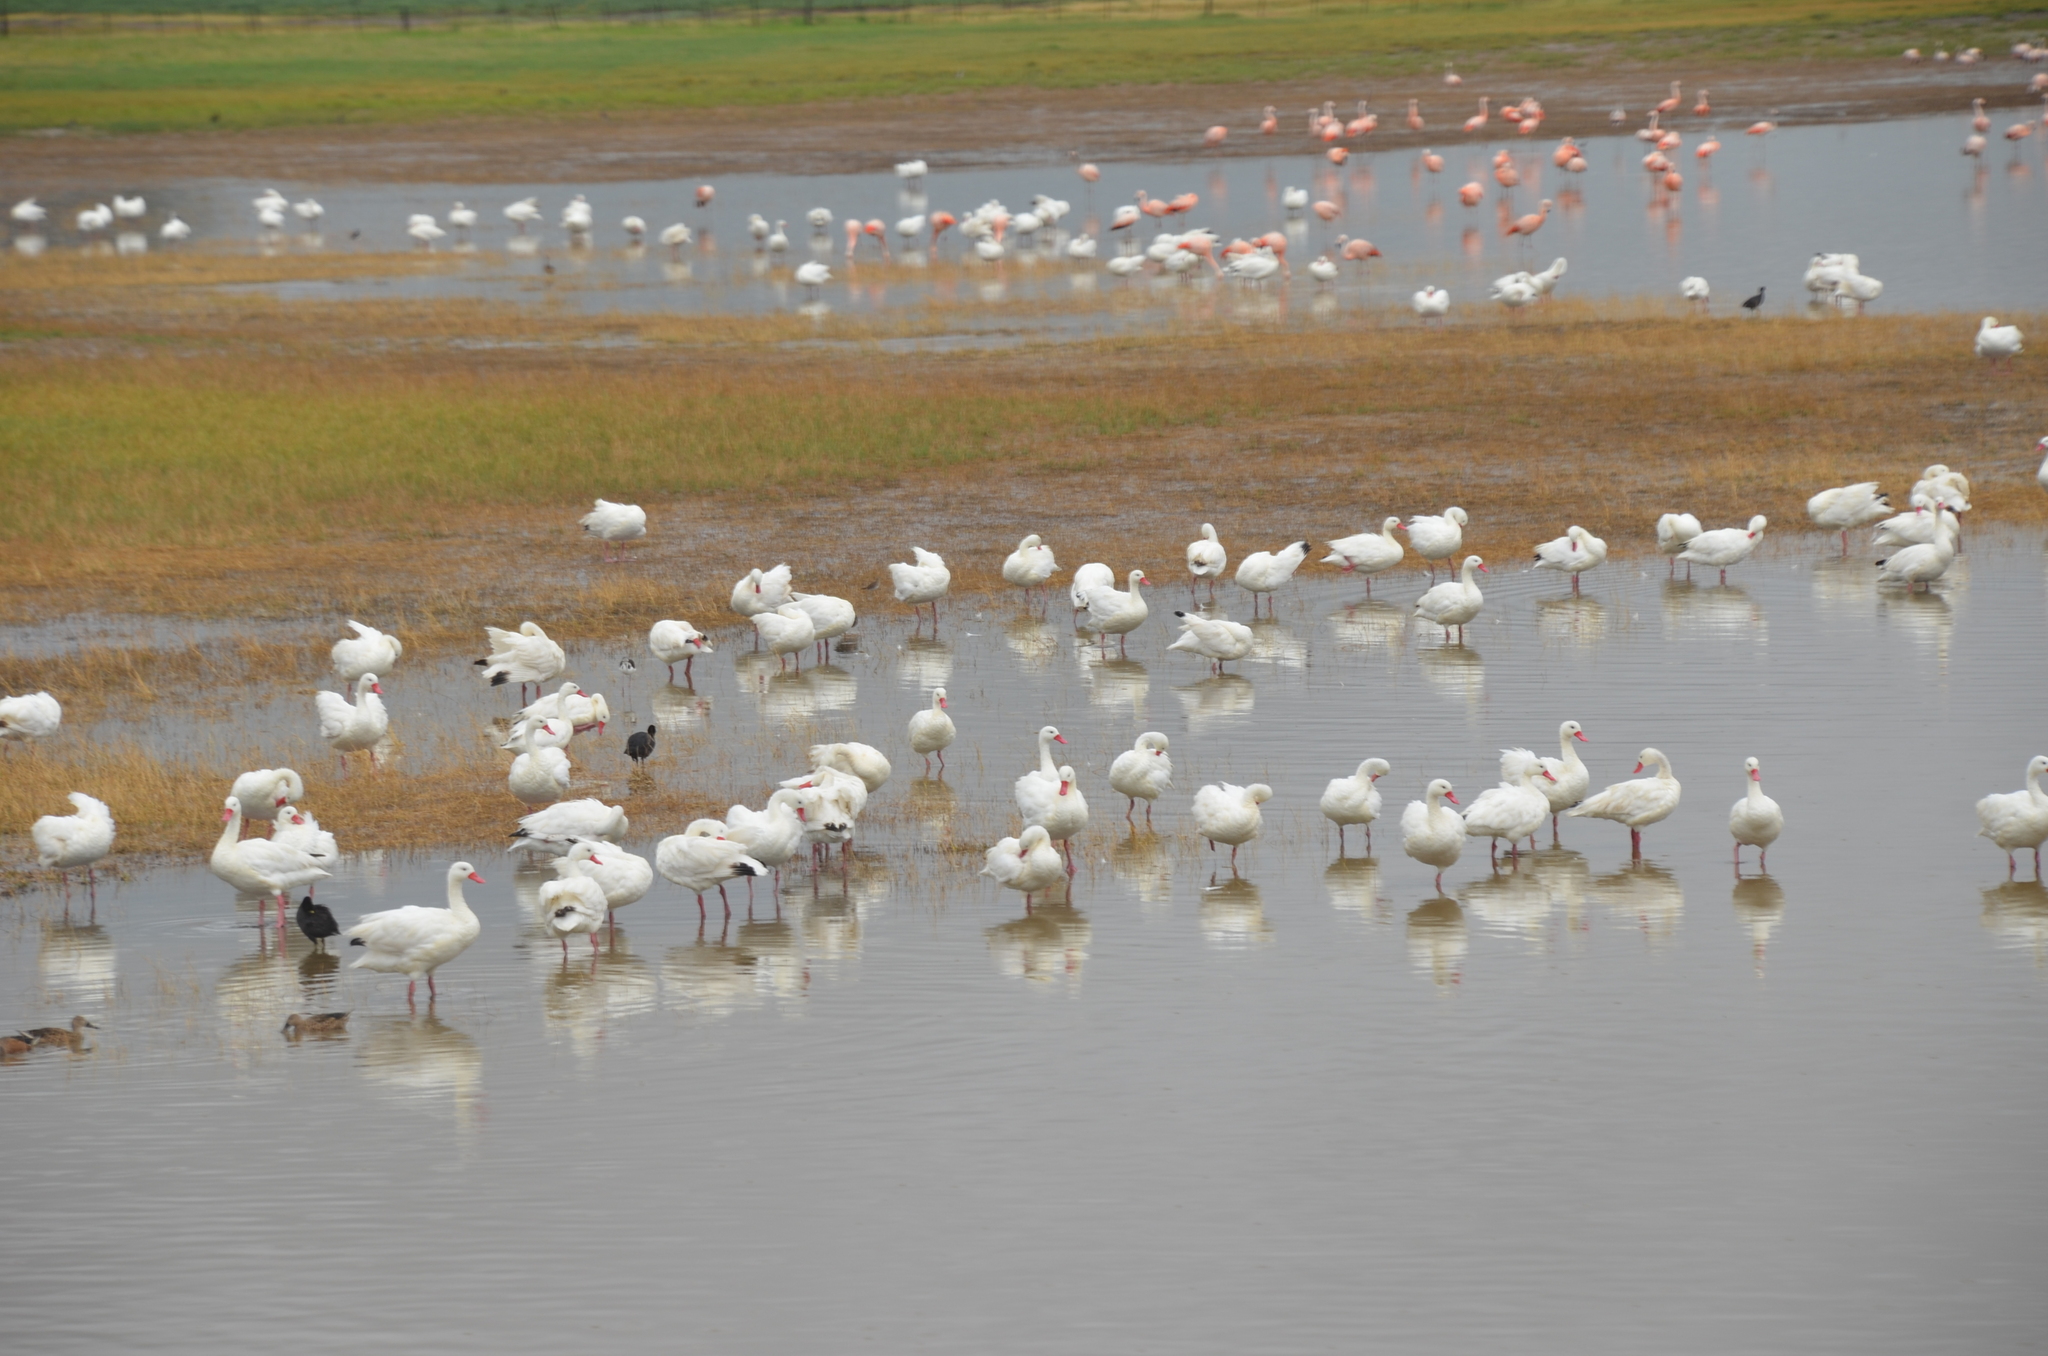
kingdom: Animalia
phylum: Chordata
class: Aves
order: Phoenicopteriformes
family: Phoenicopteridae
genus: Phoenicopterus
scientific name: Phoenicopterus chilensis
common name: Chilean flamingo
